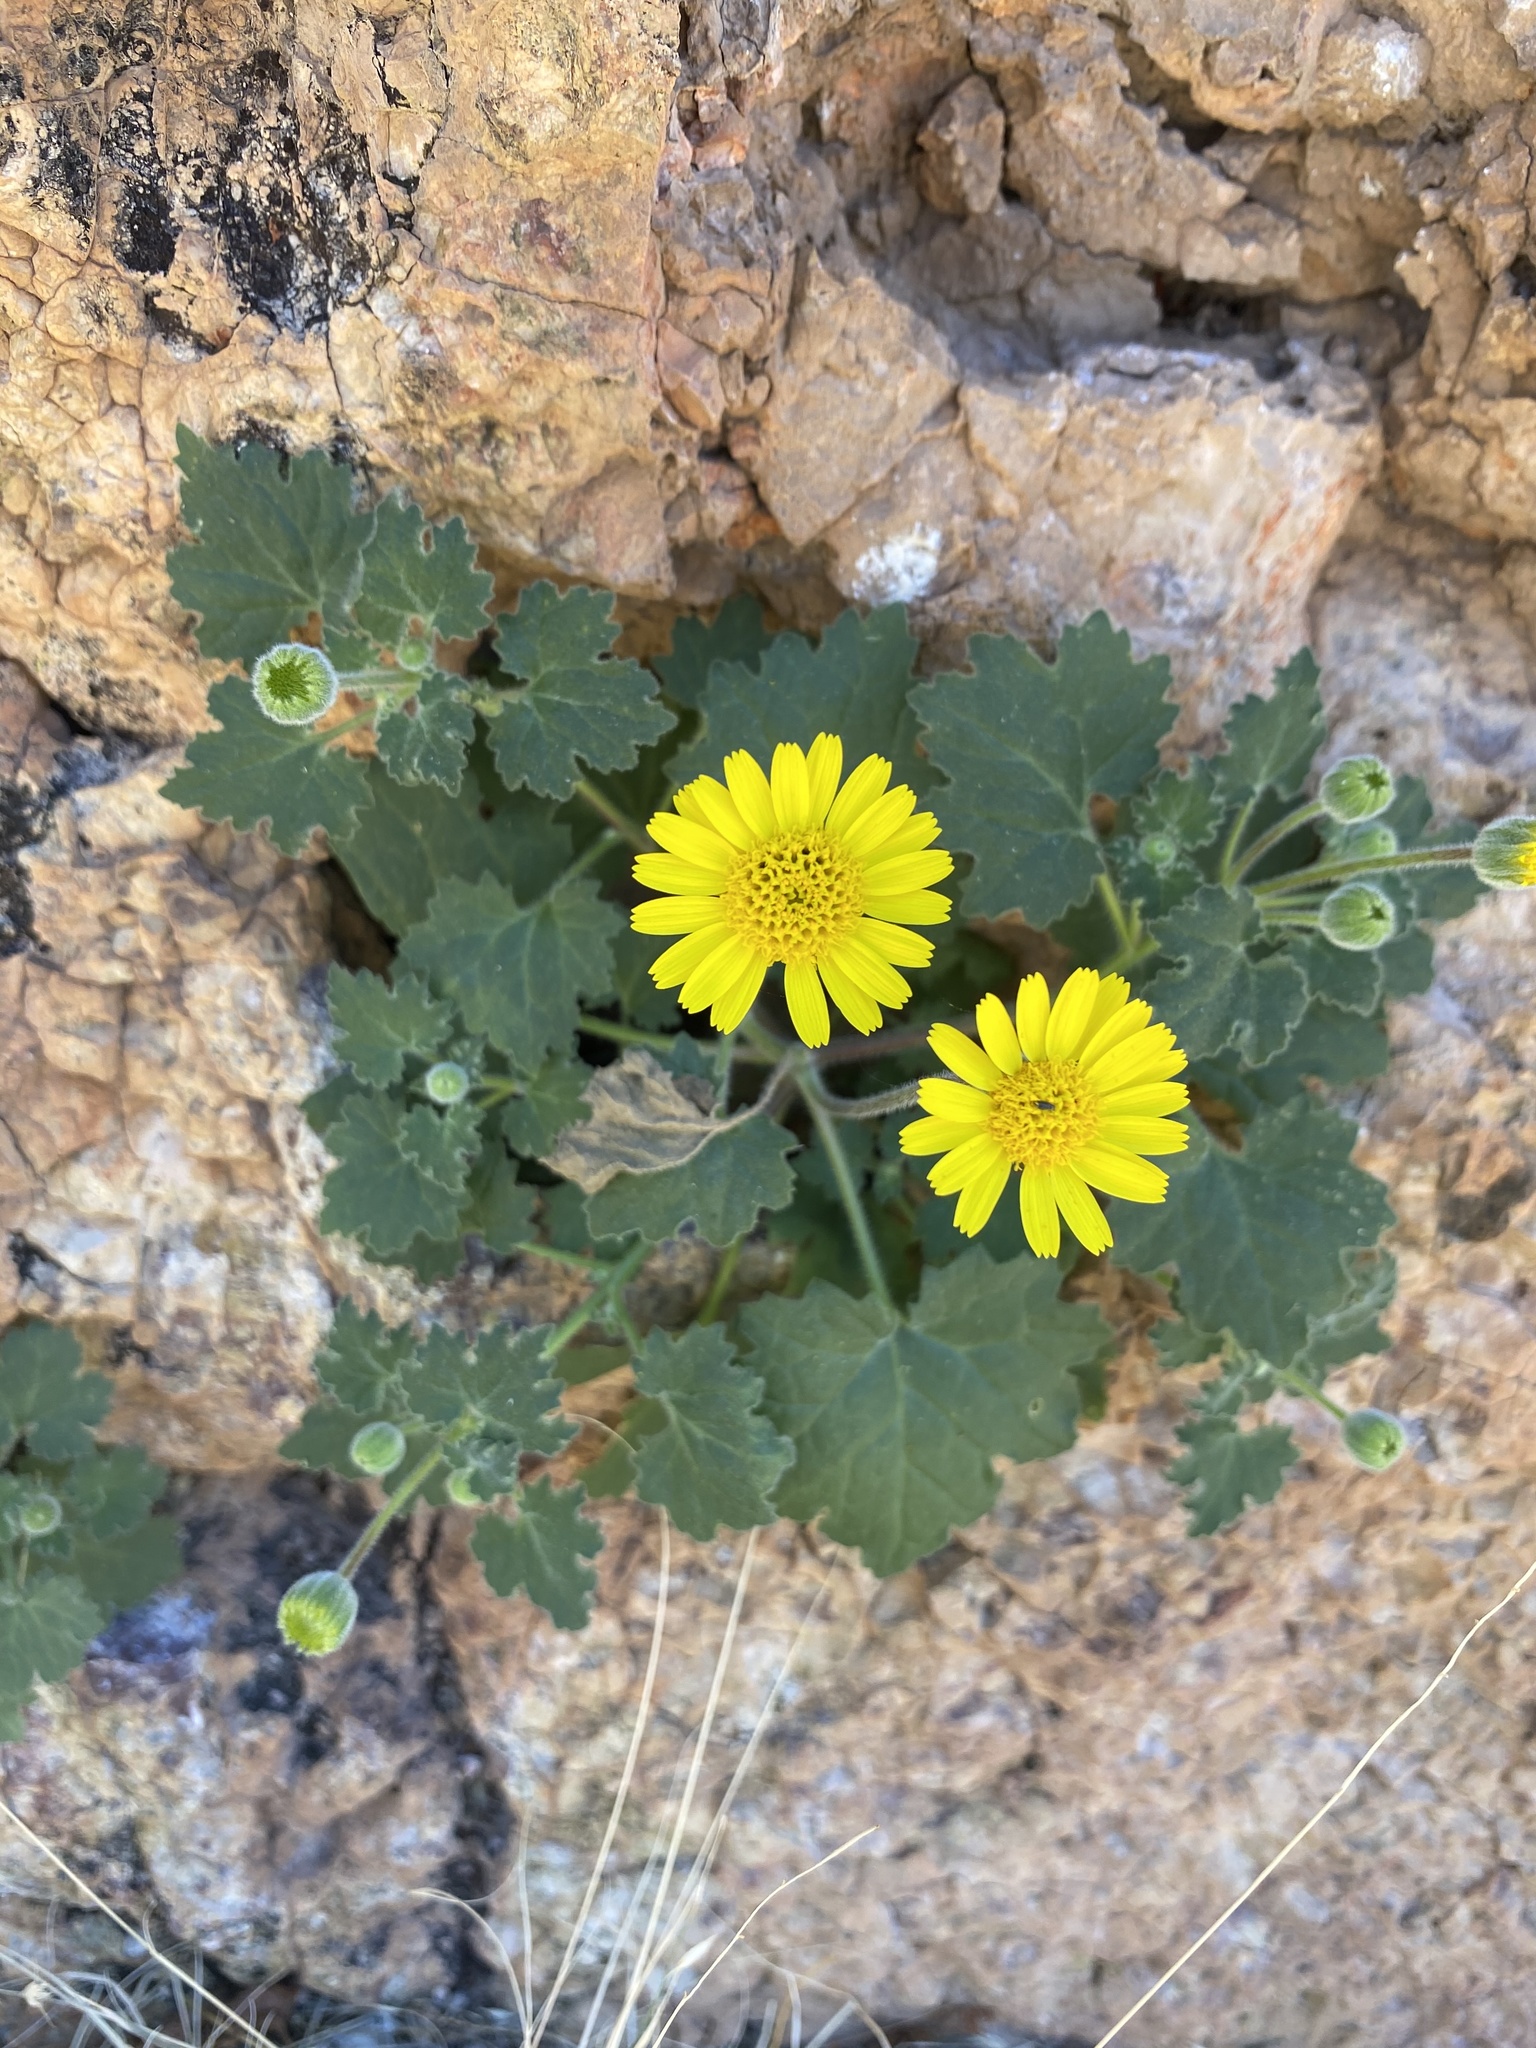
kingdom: Plantae
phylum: Tracheophyta
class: Magnoliopsida
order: Asterales
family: Asteraceae
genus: Laphamia
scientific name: Laphamia sanchezii
